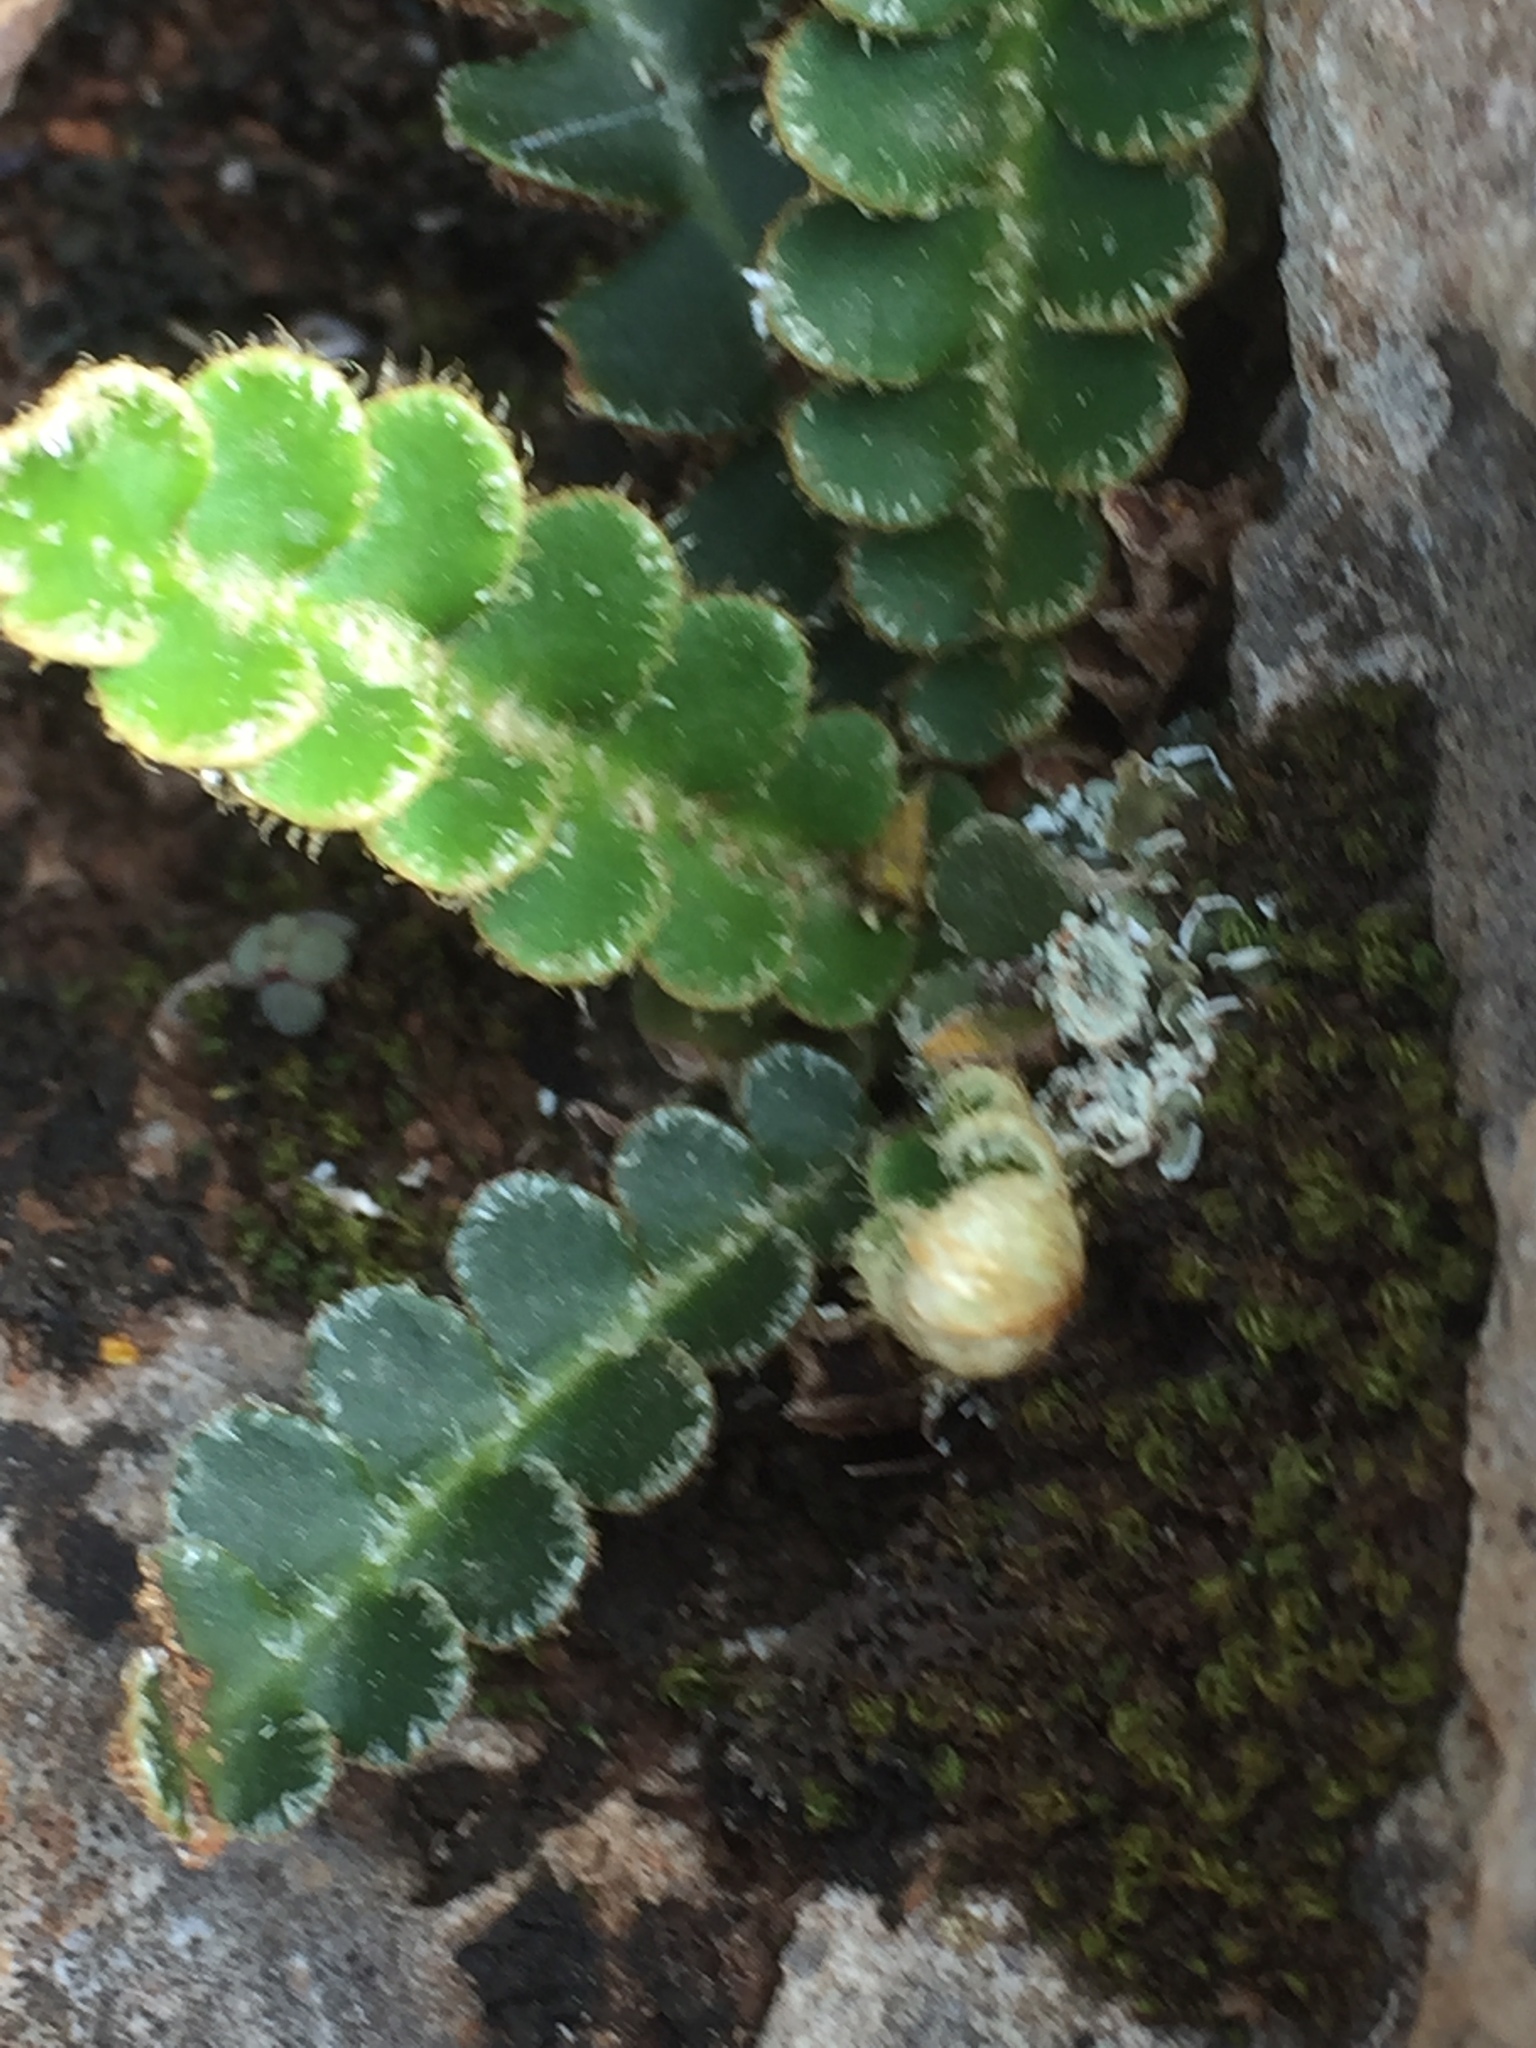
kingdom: Plantae
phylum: Tracheophyta
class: Polypodiopsida
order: Polypodiales
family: Aspleniaceae
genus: Asplenium
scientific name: Asplenium ceterach
